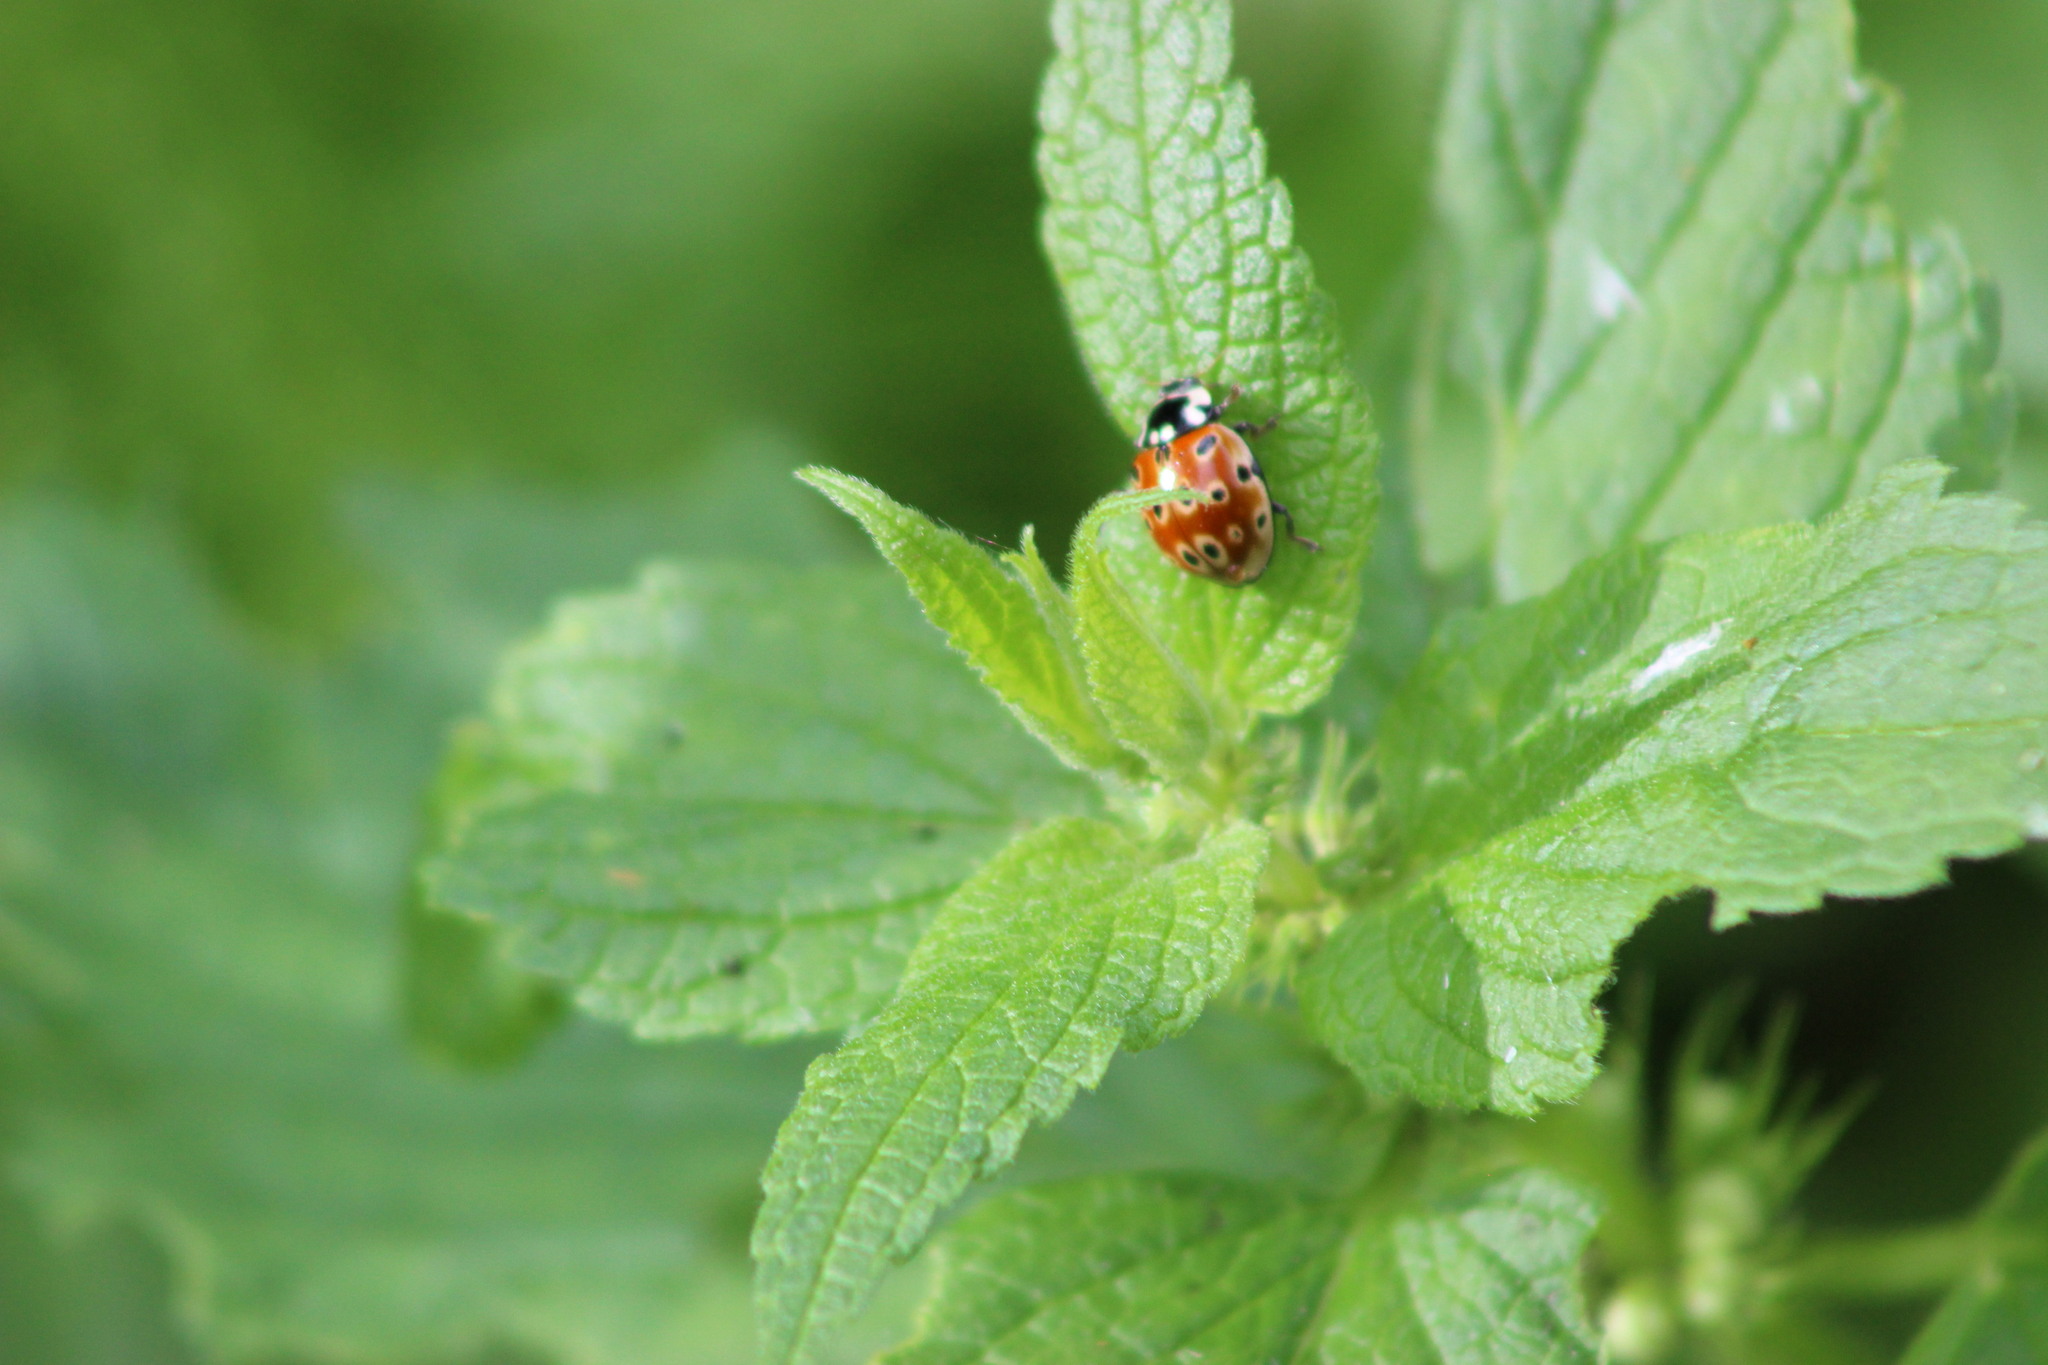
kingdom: Animalia
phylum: Arthropoda
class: Insecta
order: Coleoptera
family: Coccinellidae
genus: Anatis
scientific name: Anatis ocellata
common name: Eyed ladybird
